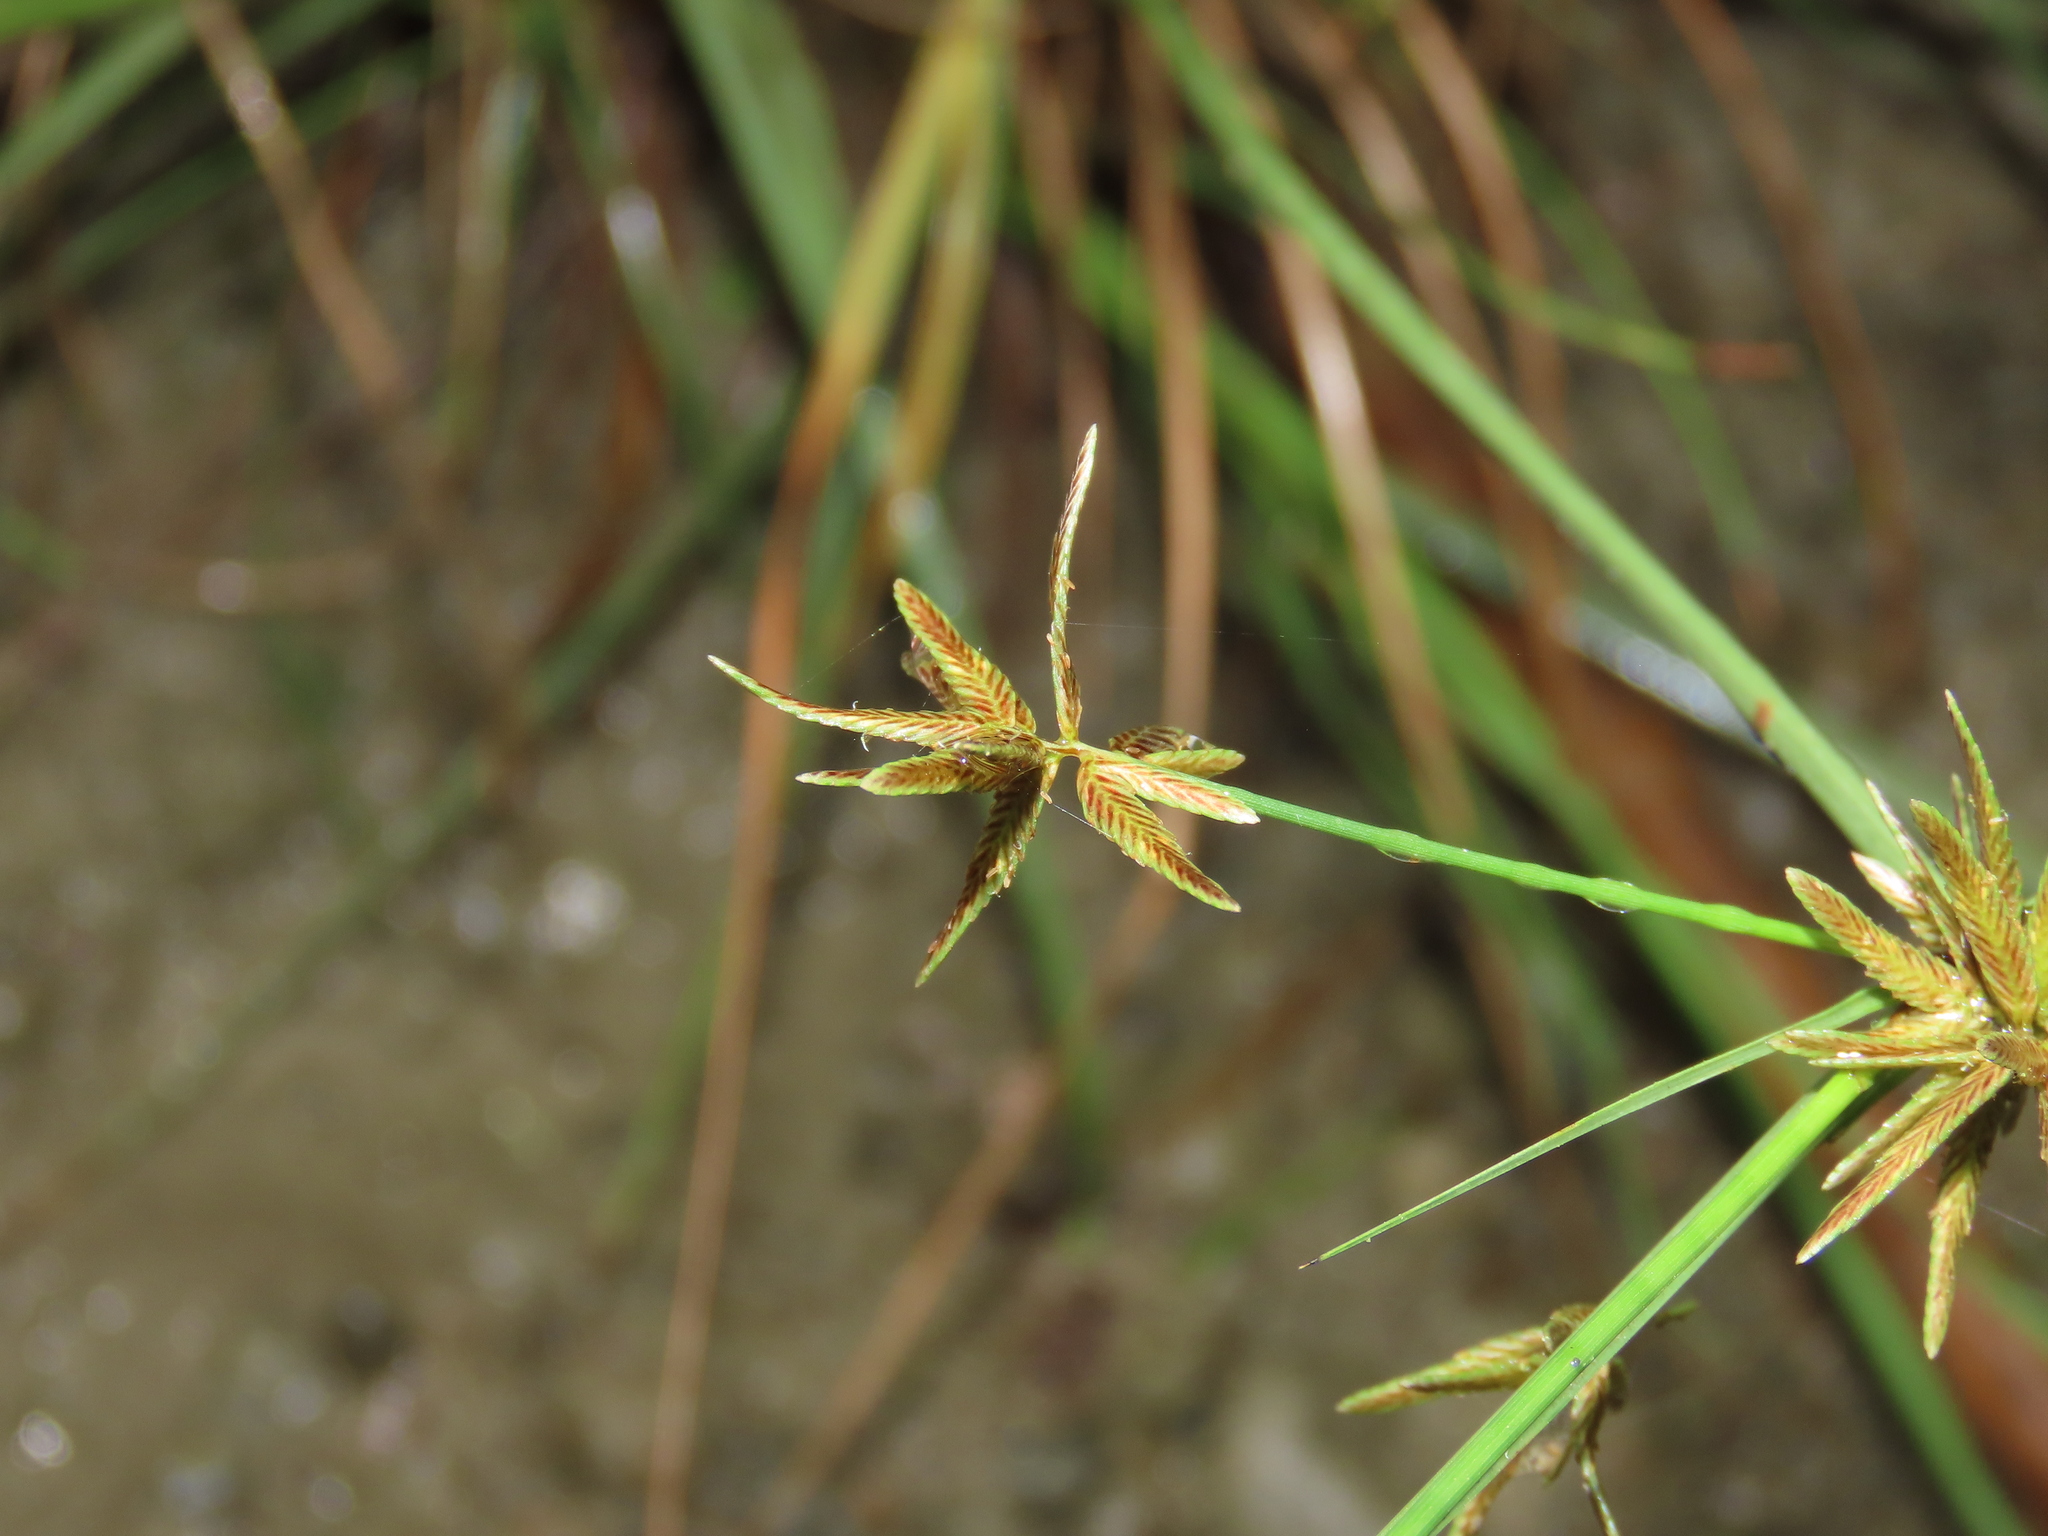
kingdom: Plantae
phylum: Tracheophyta
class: Liliopsida
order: Poales
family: Cyperaceae
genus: Cyperus
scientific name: Cyperus flavidus
